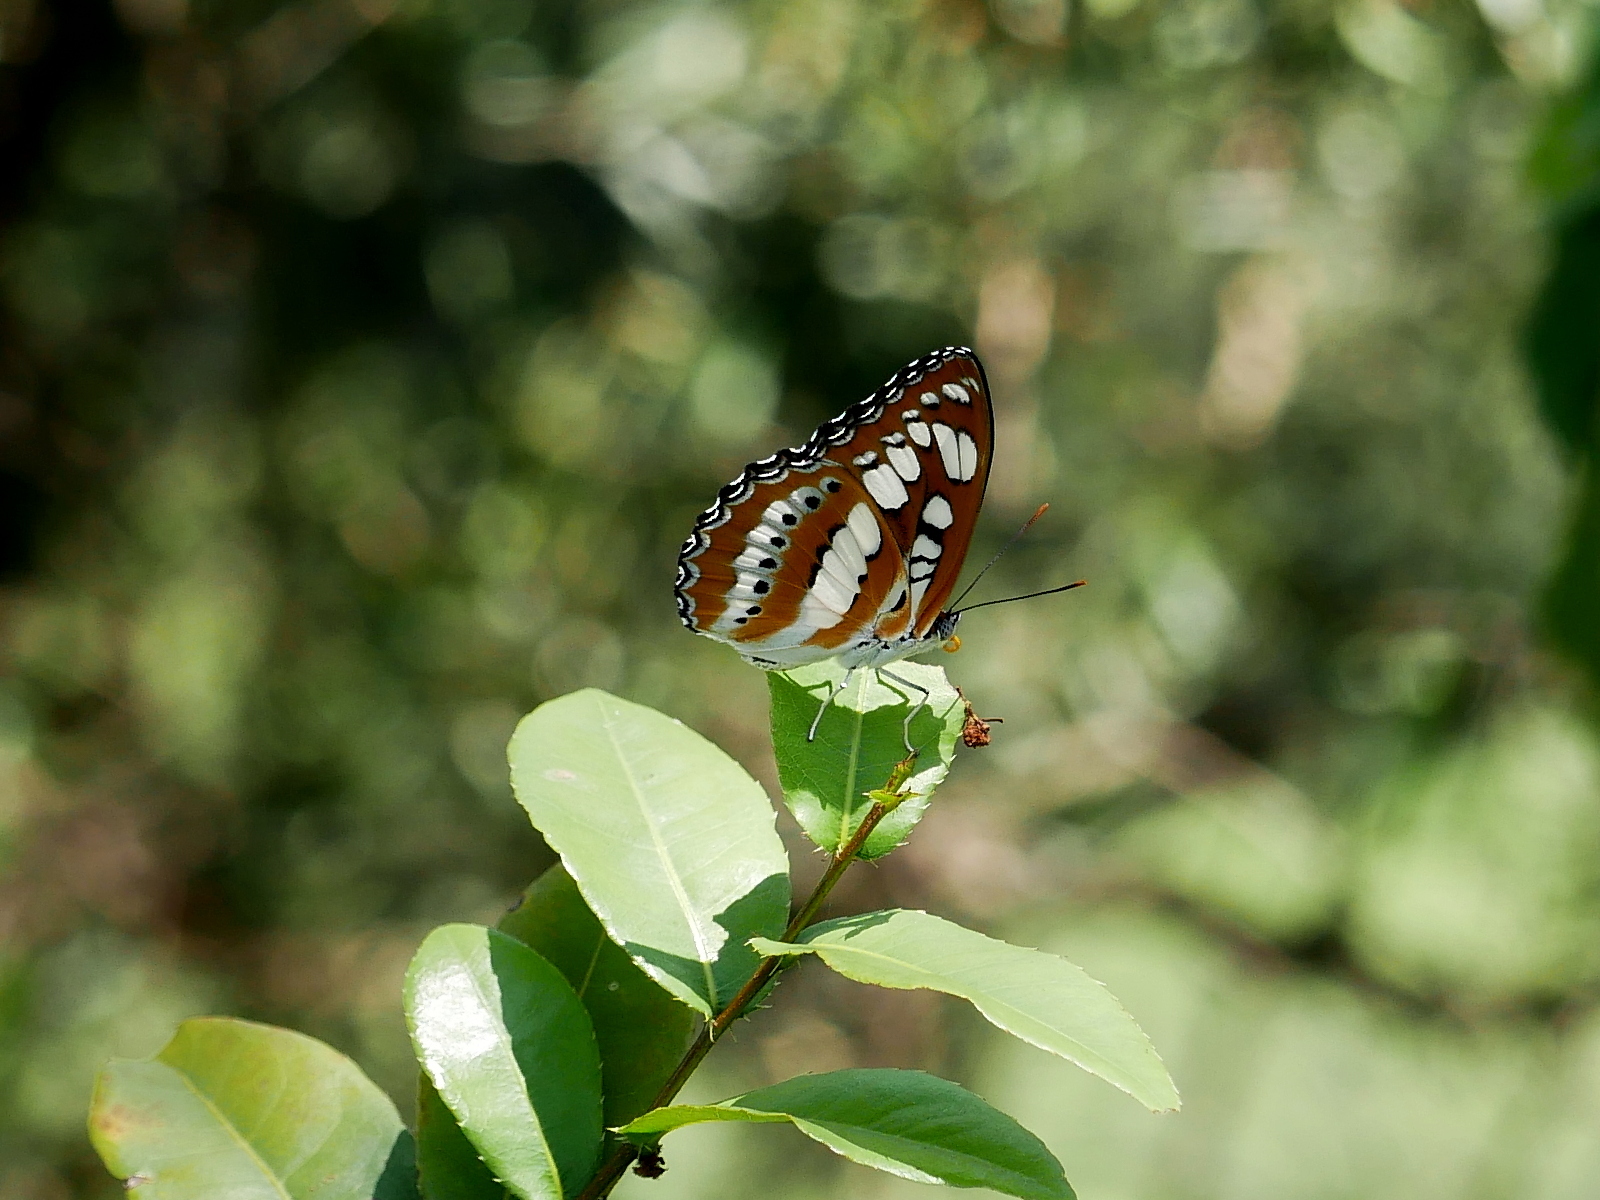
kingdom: Animalia
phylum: Arthropoda
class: Insecta
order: Lepidoptera
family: Nymphalidae
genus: Parathyma
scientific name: Parathyma perius
